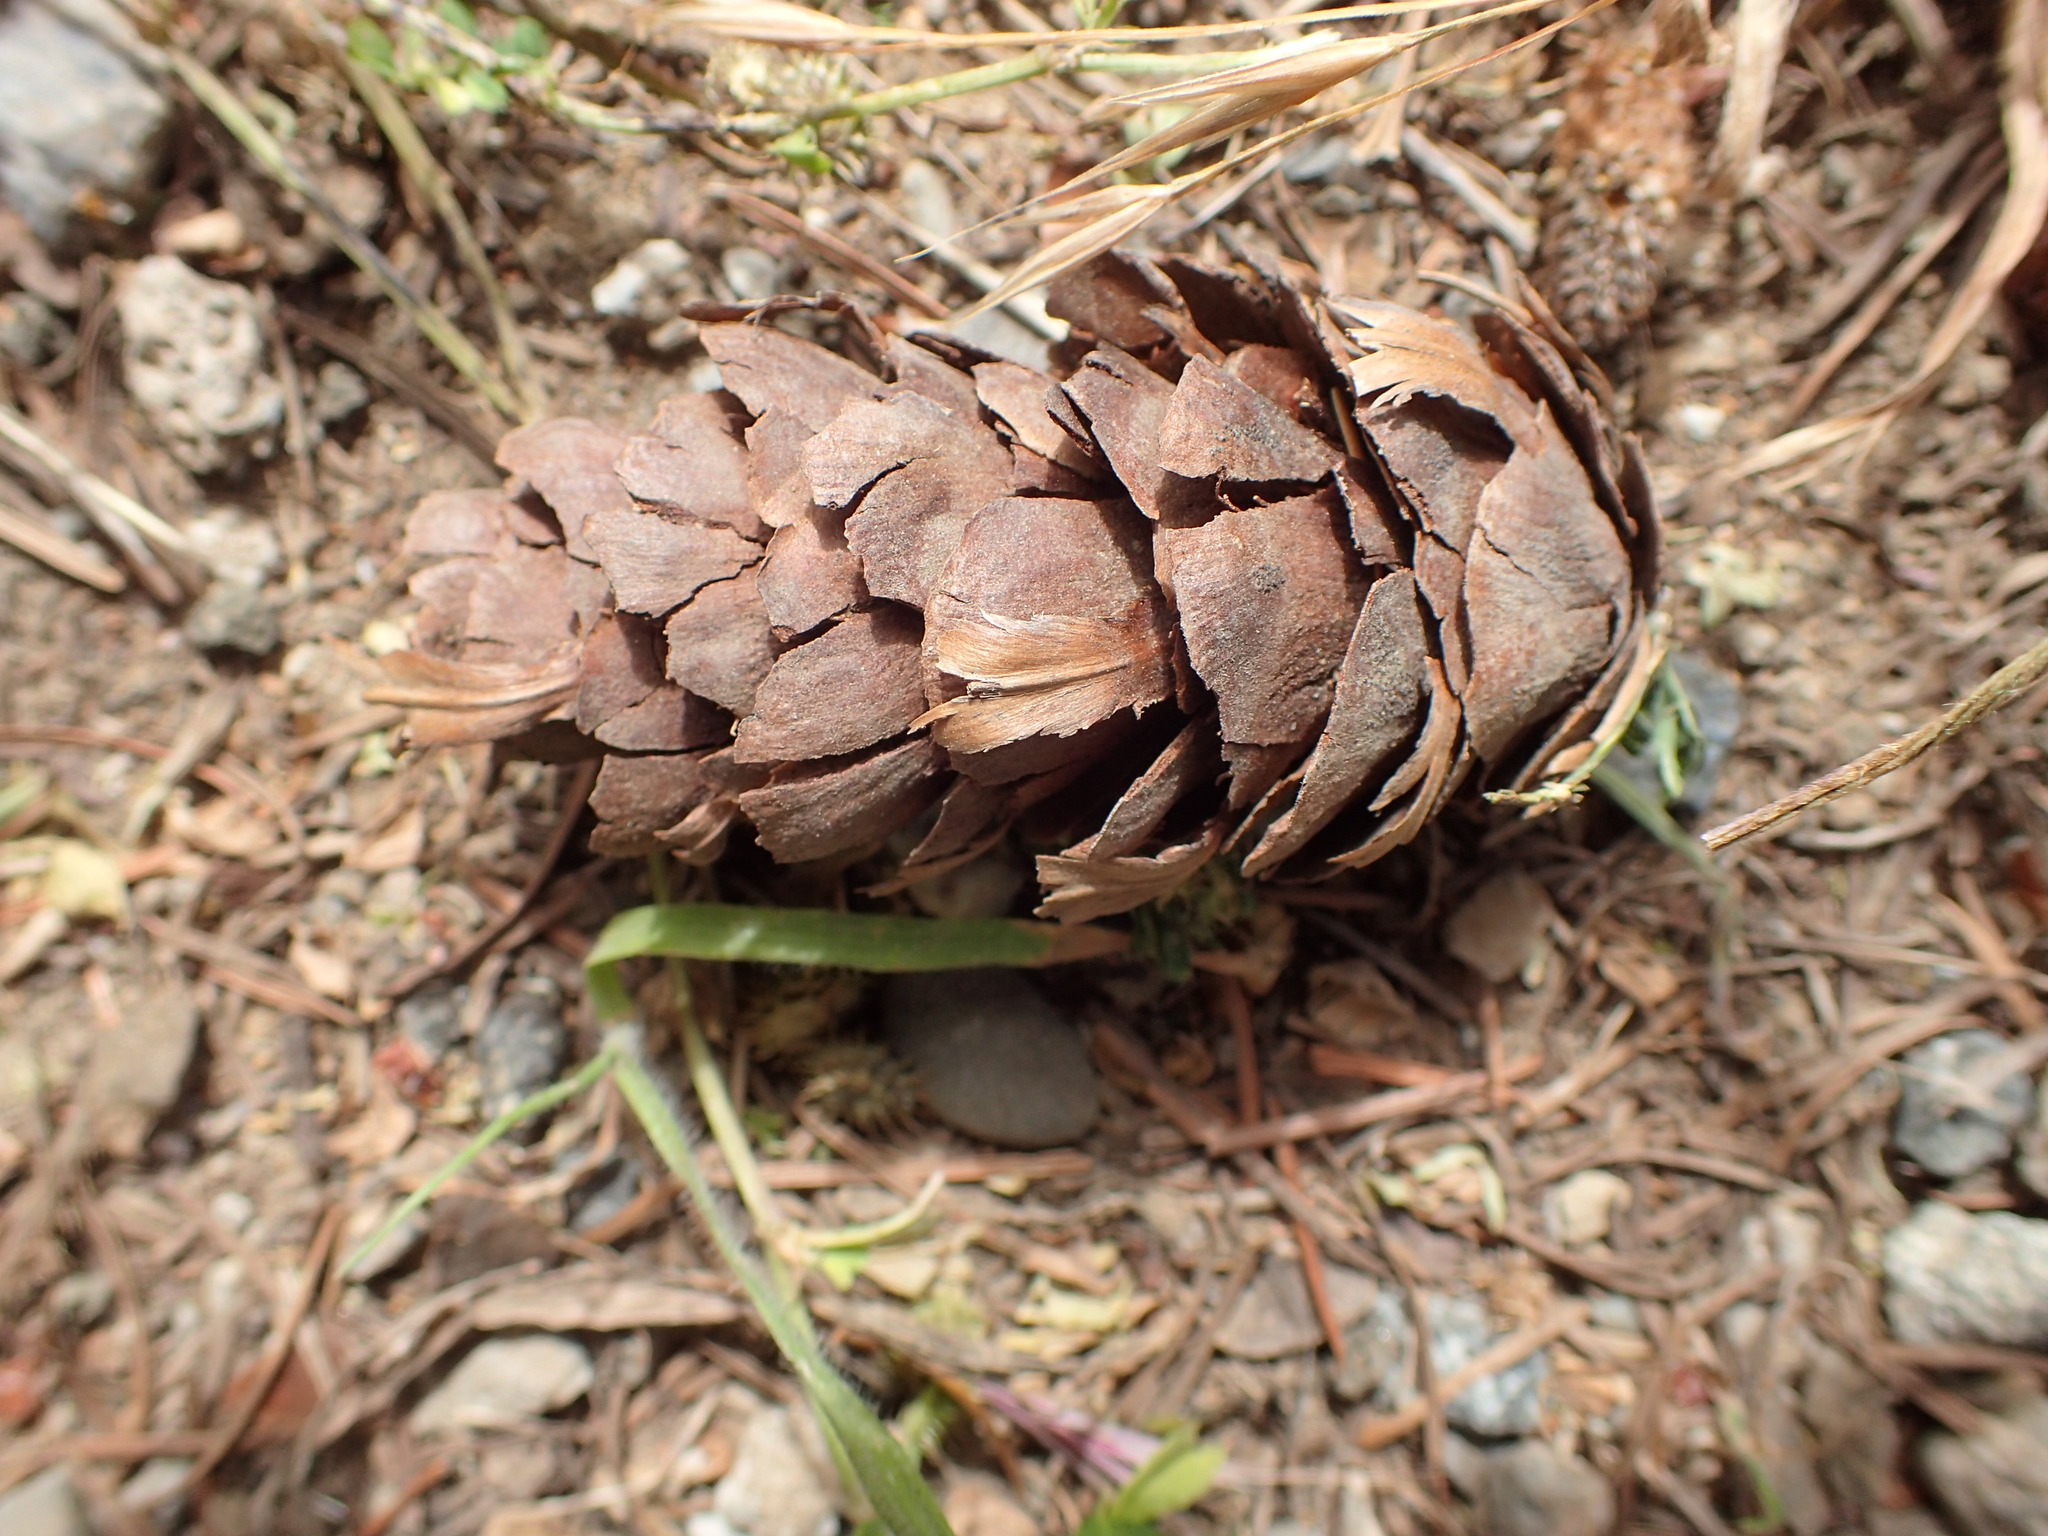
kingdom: Plantae
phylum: Tracheophyta
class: Pinopsida
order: Pinales
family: Pinaceae
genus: Pseudotsuga
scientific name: Pseudotsuga menziesii
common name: Douglas fir
